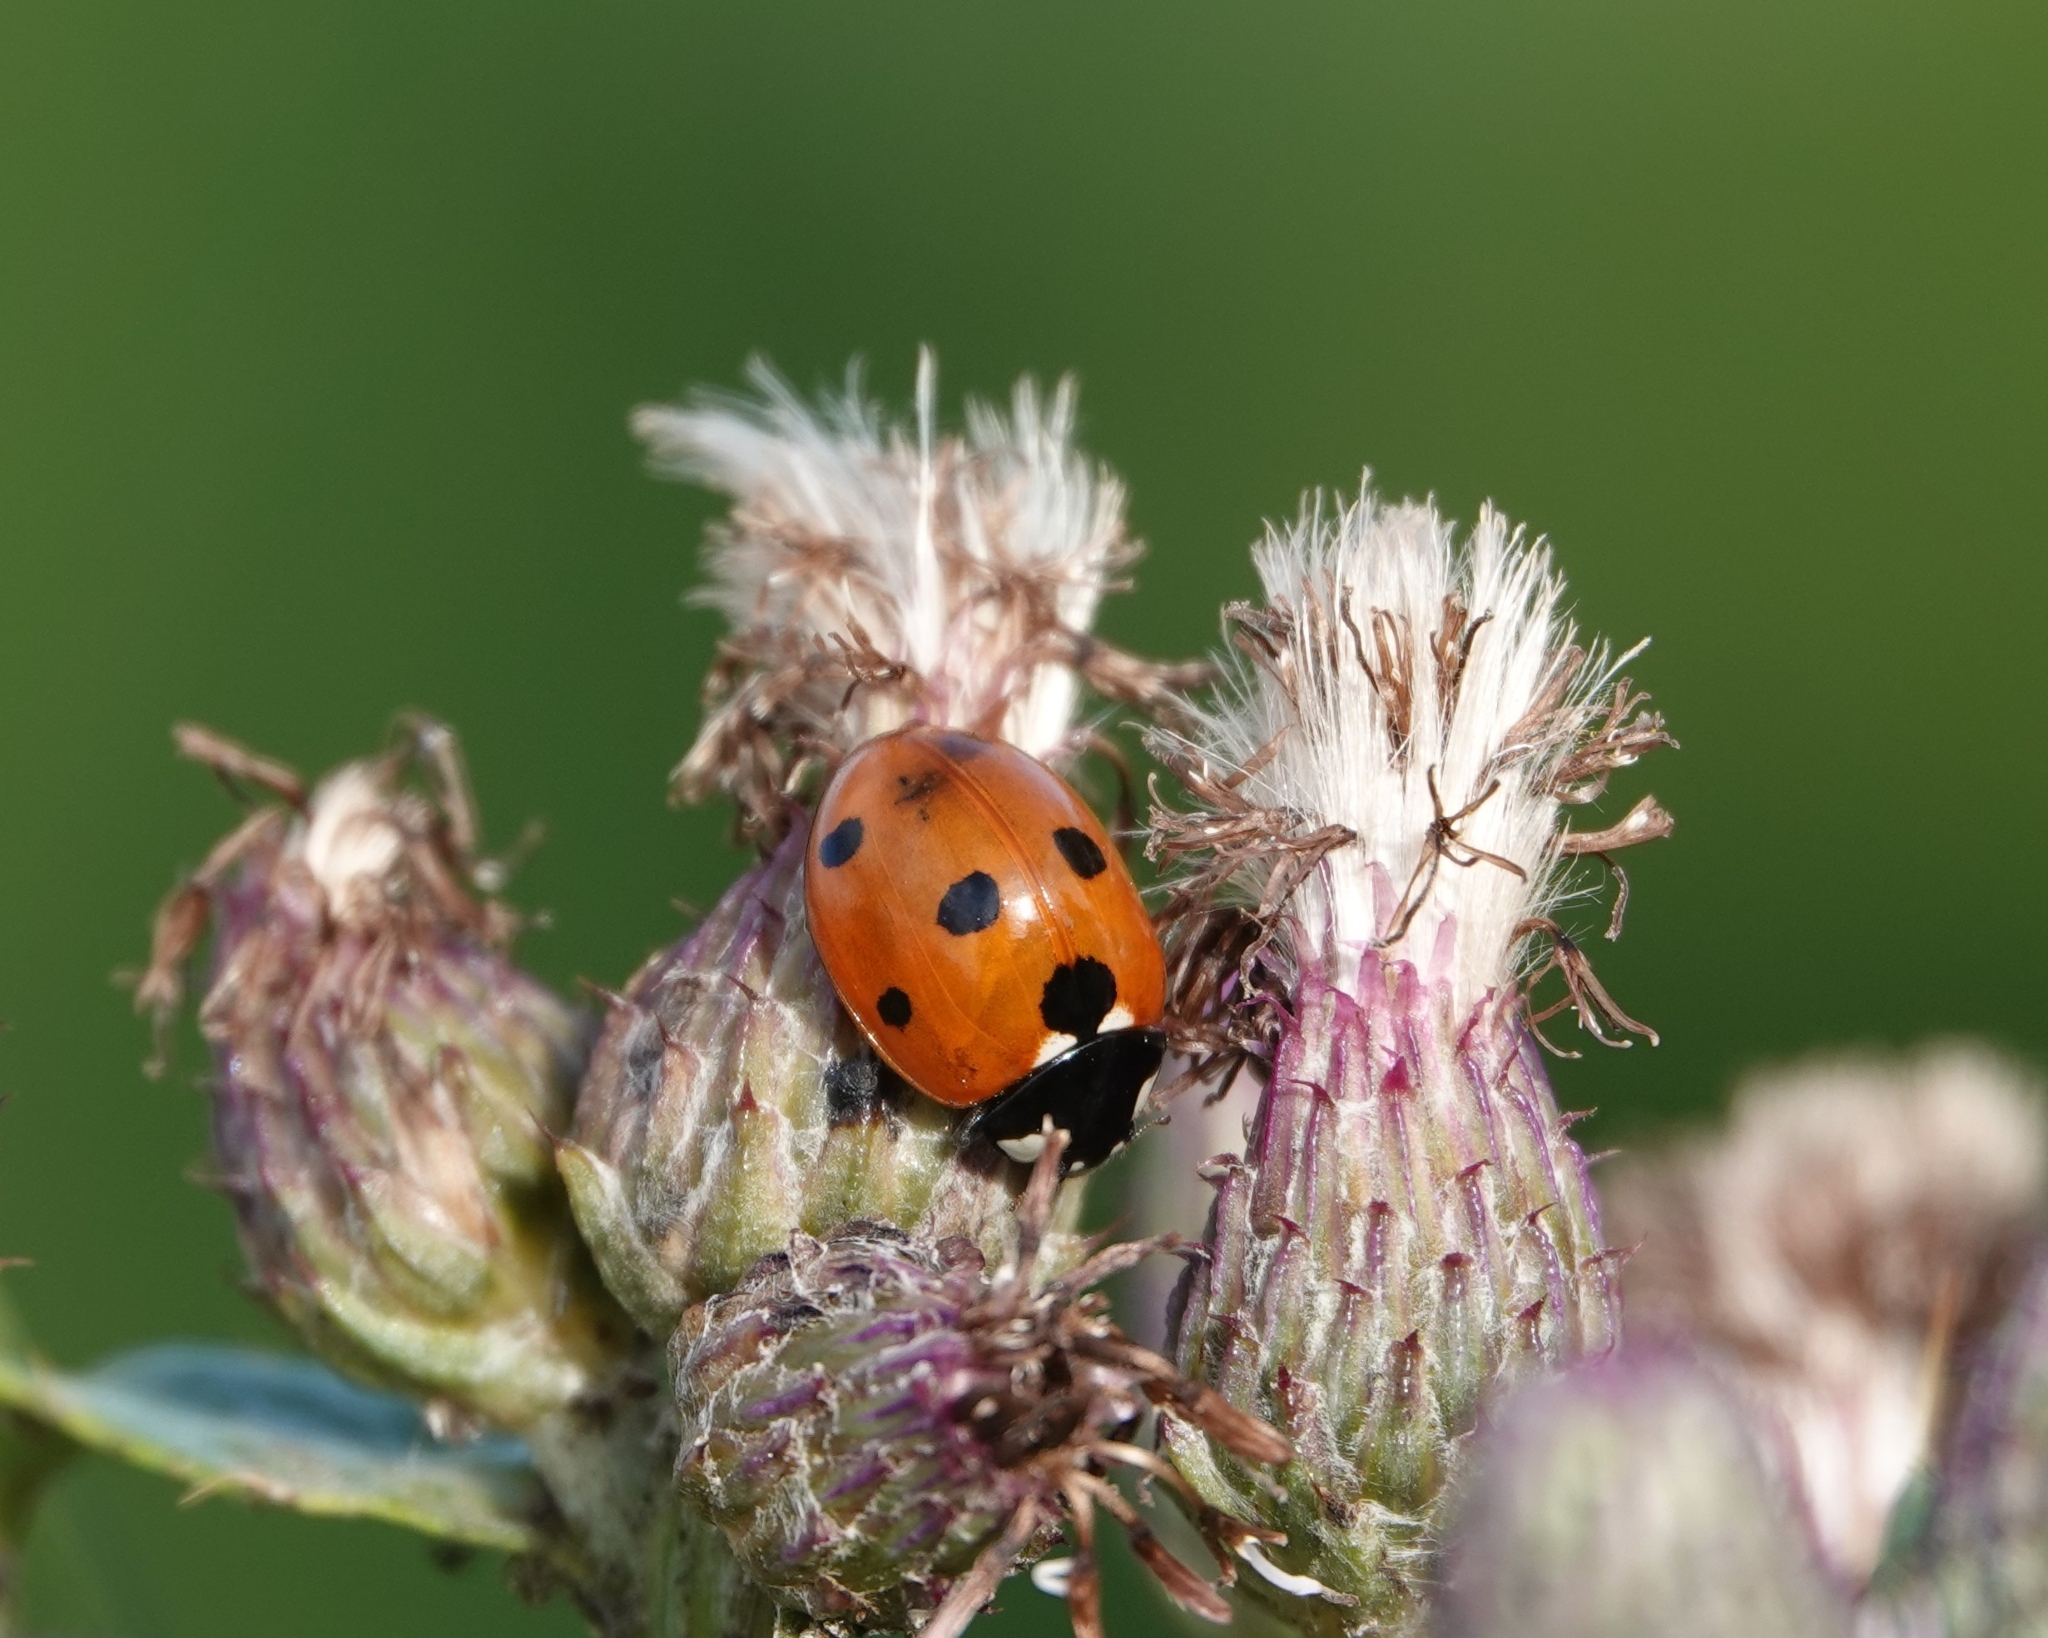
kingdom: Animalia
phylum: Arthropoda
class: Insecta
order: Coleoptera
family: Coccinellidae
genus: Coccinella
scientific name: Coccinella septempunctata
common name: Sevenspotted lady beetle
